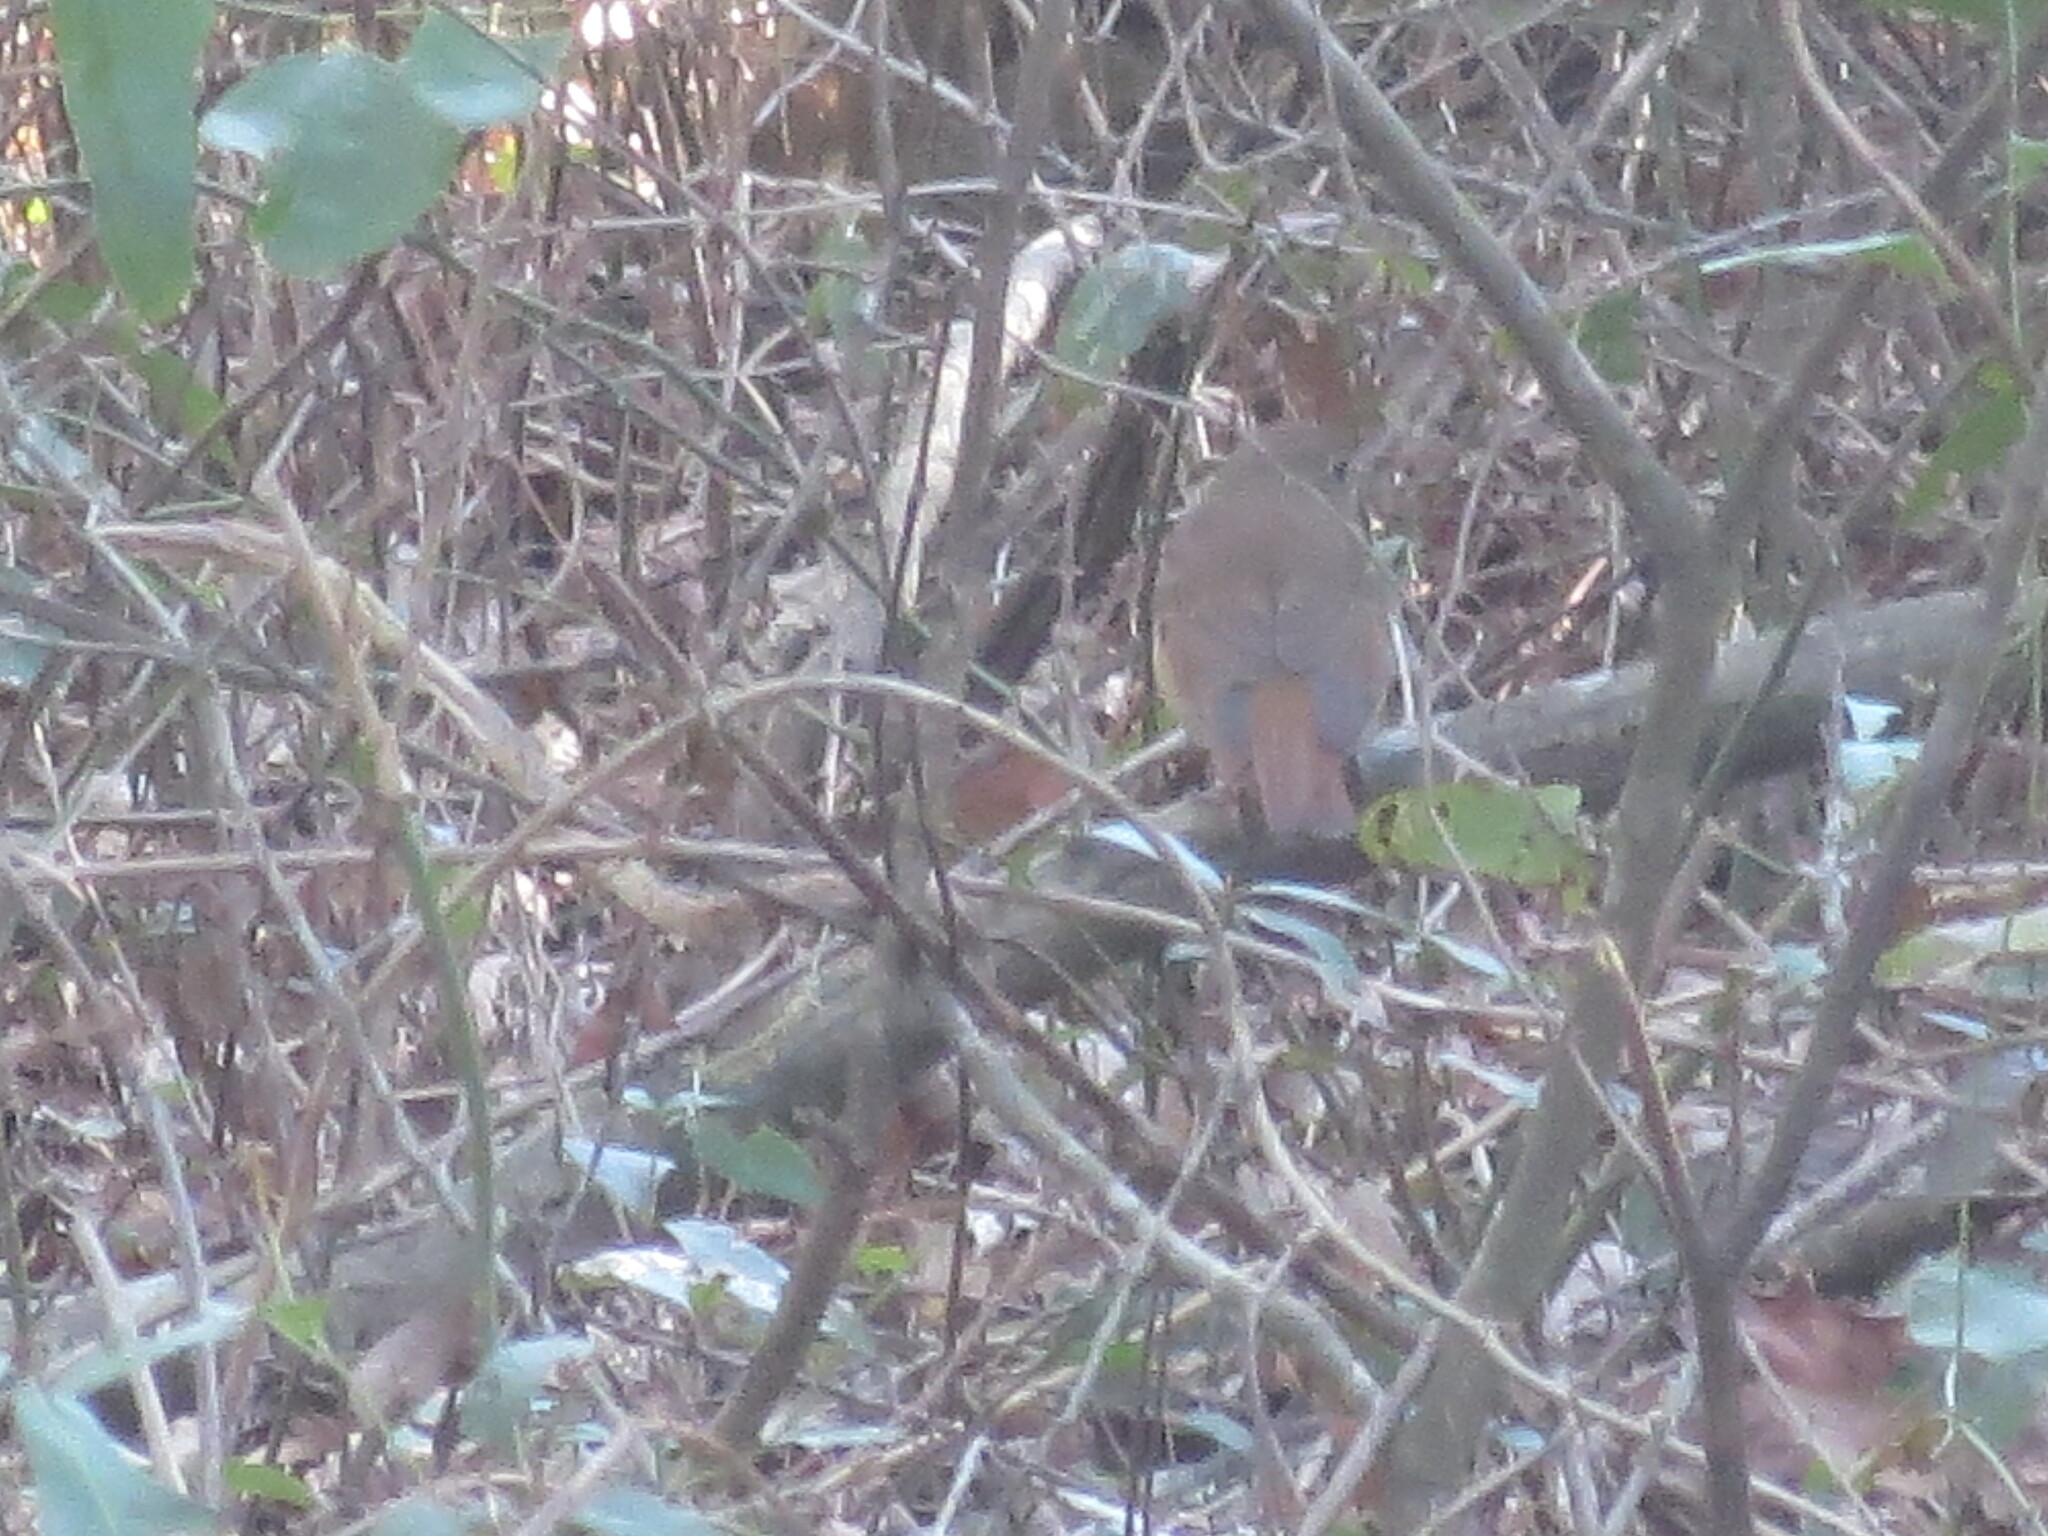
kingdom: Animalia
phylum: Chordata
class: Aves
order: Passeriformes
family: Turdidae
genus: Catharus
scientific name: Catharus guttatus
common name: Hermit thrush
